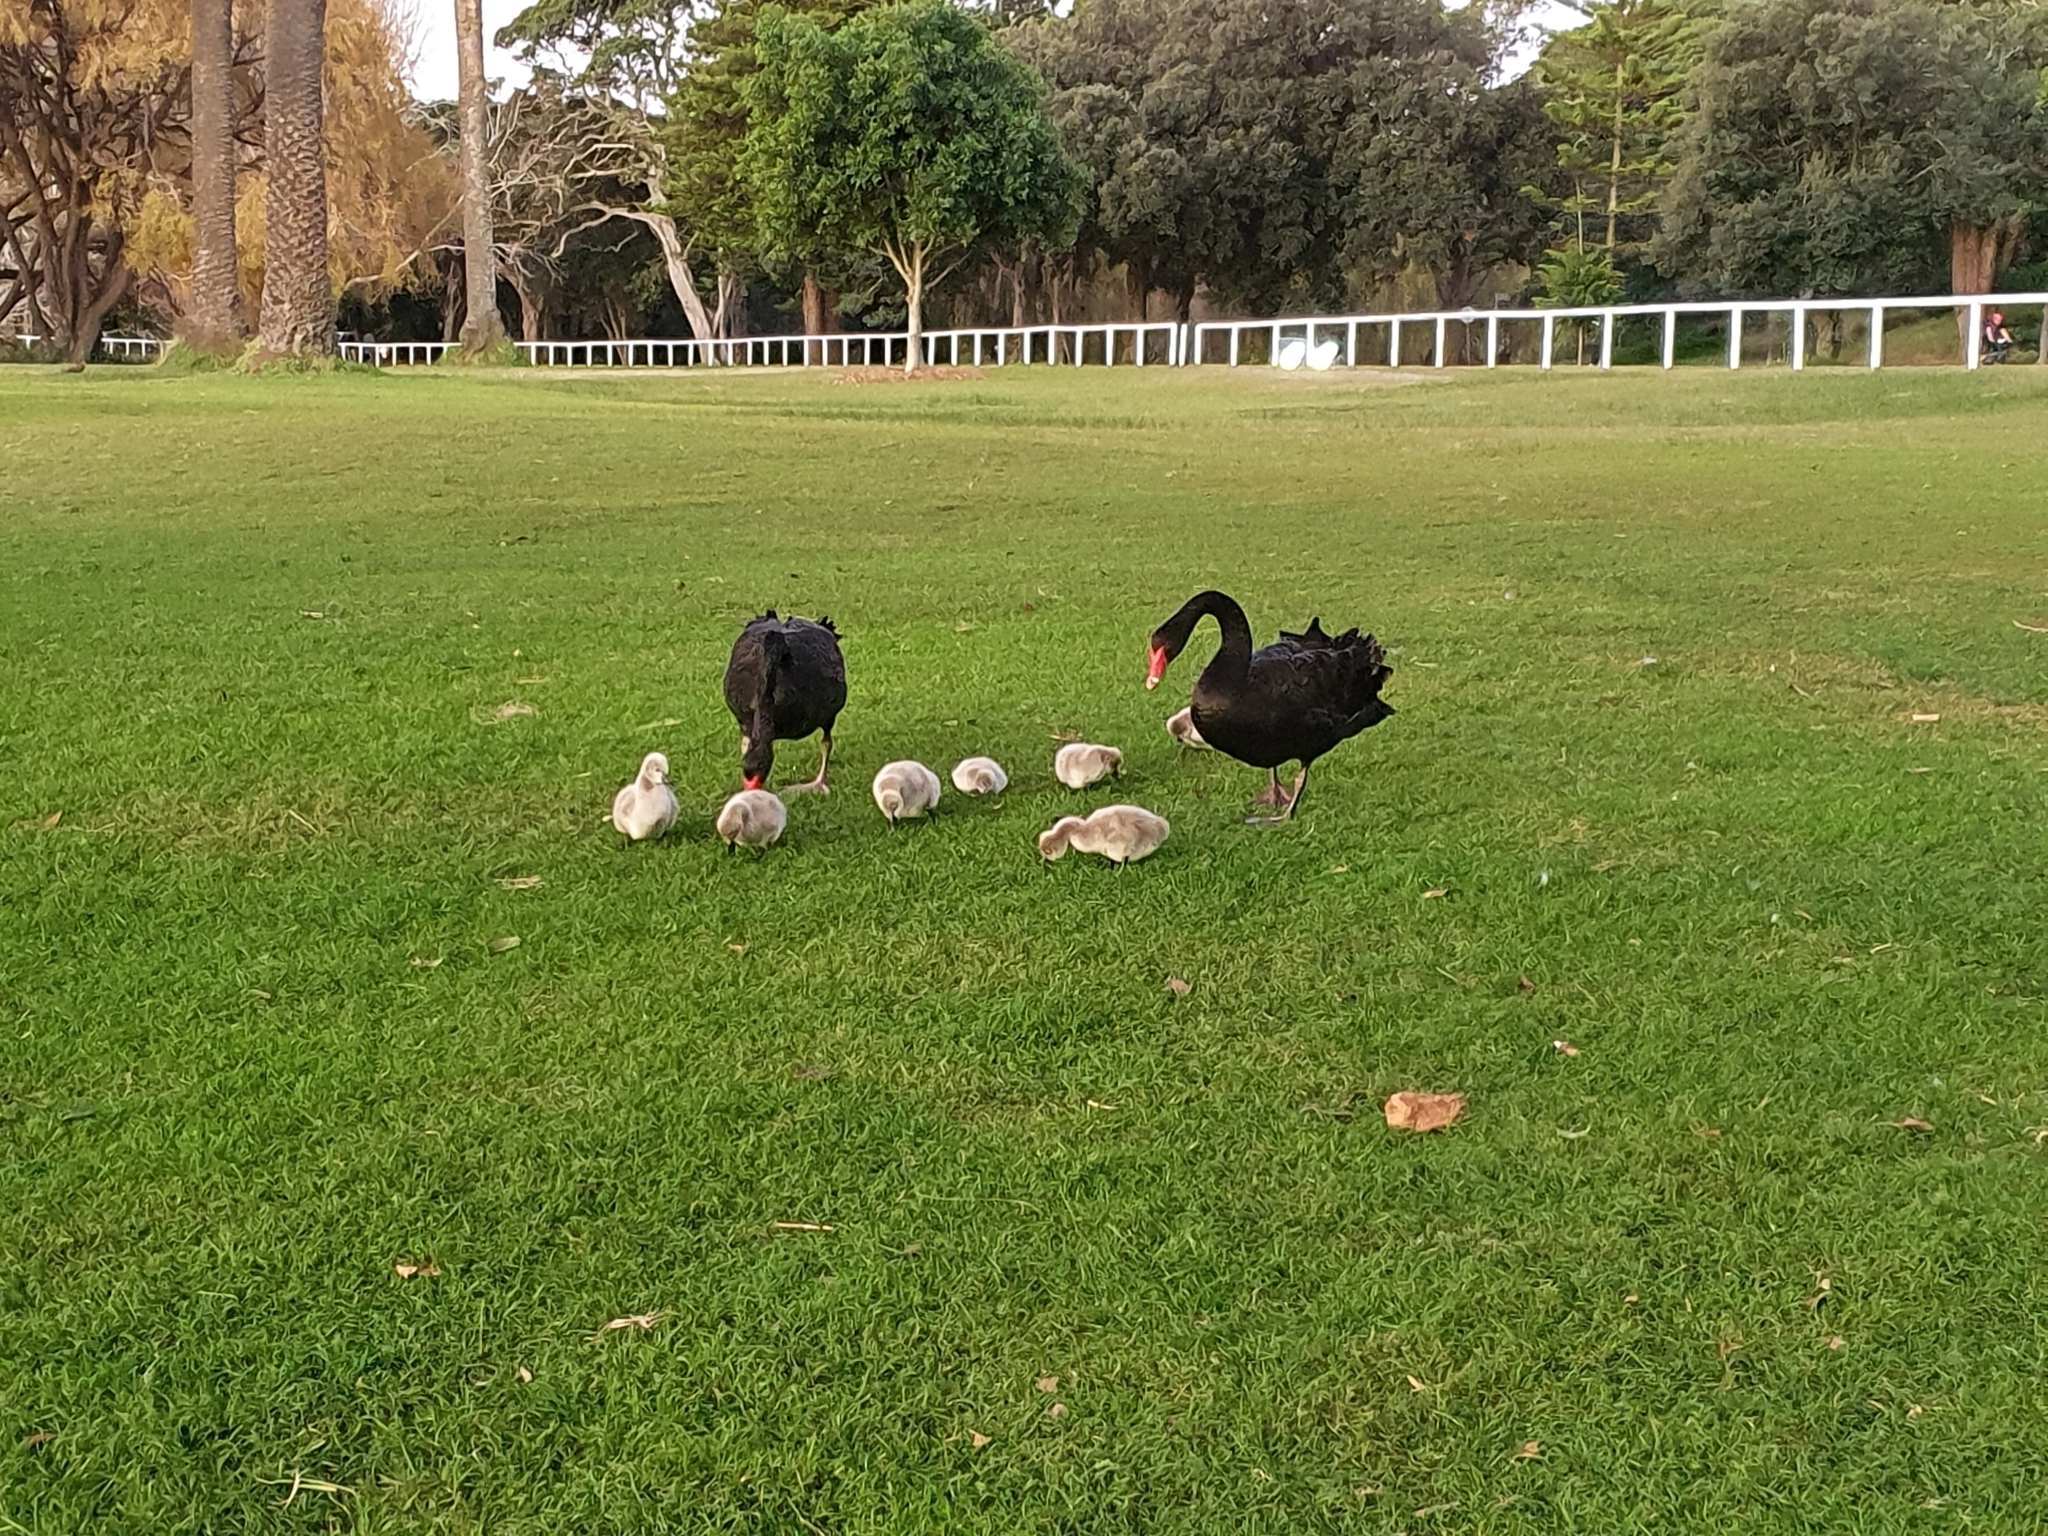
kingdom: Animalia
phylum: Chordata
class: Aves
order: Anseriformes
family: Anatidae
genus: Cygnus
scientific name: Cygnus atratus
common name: Black swan
